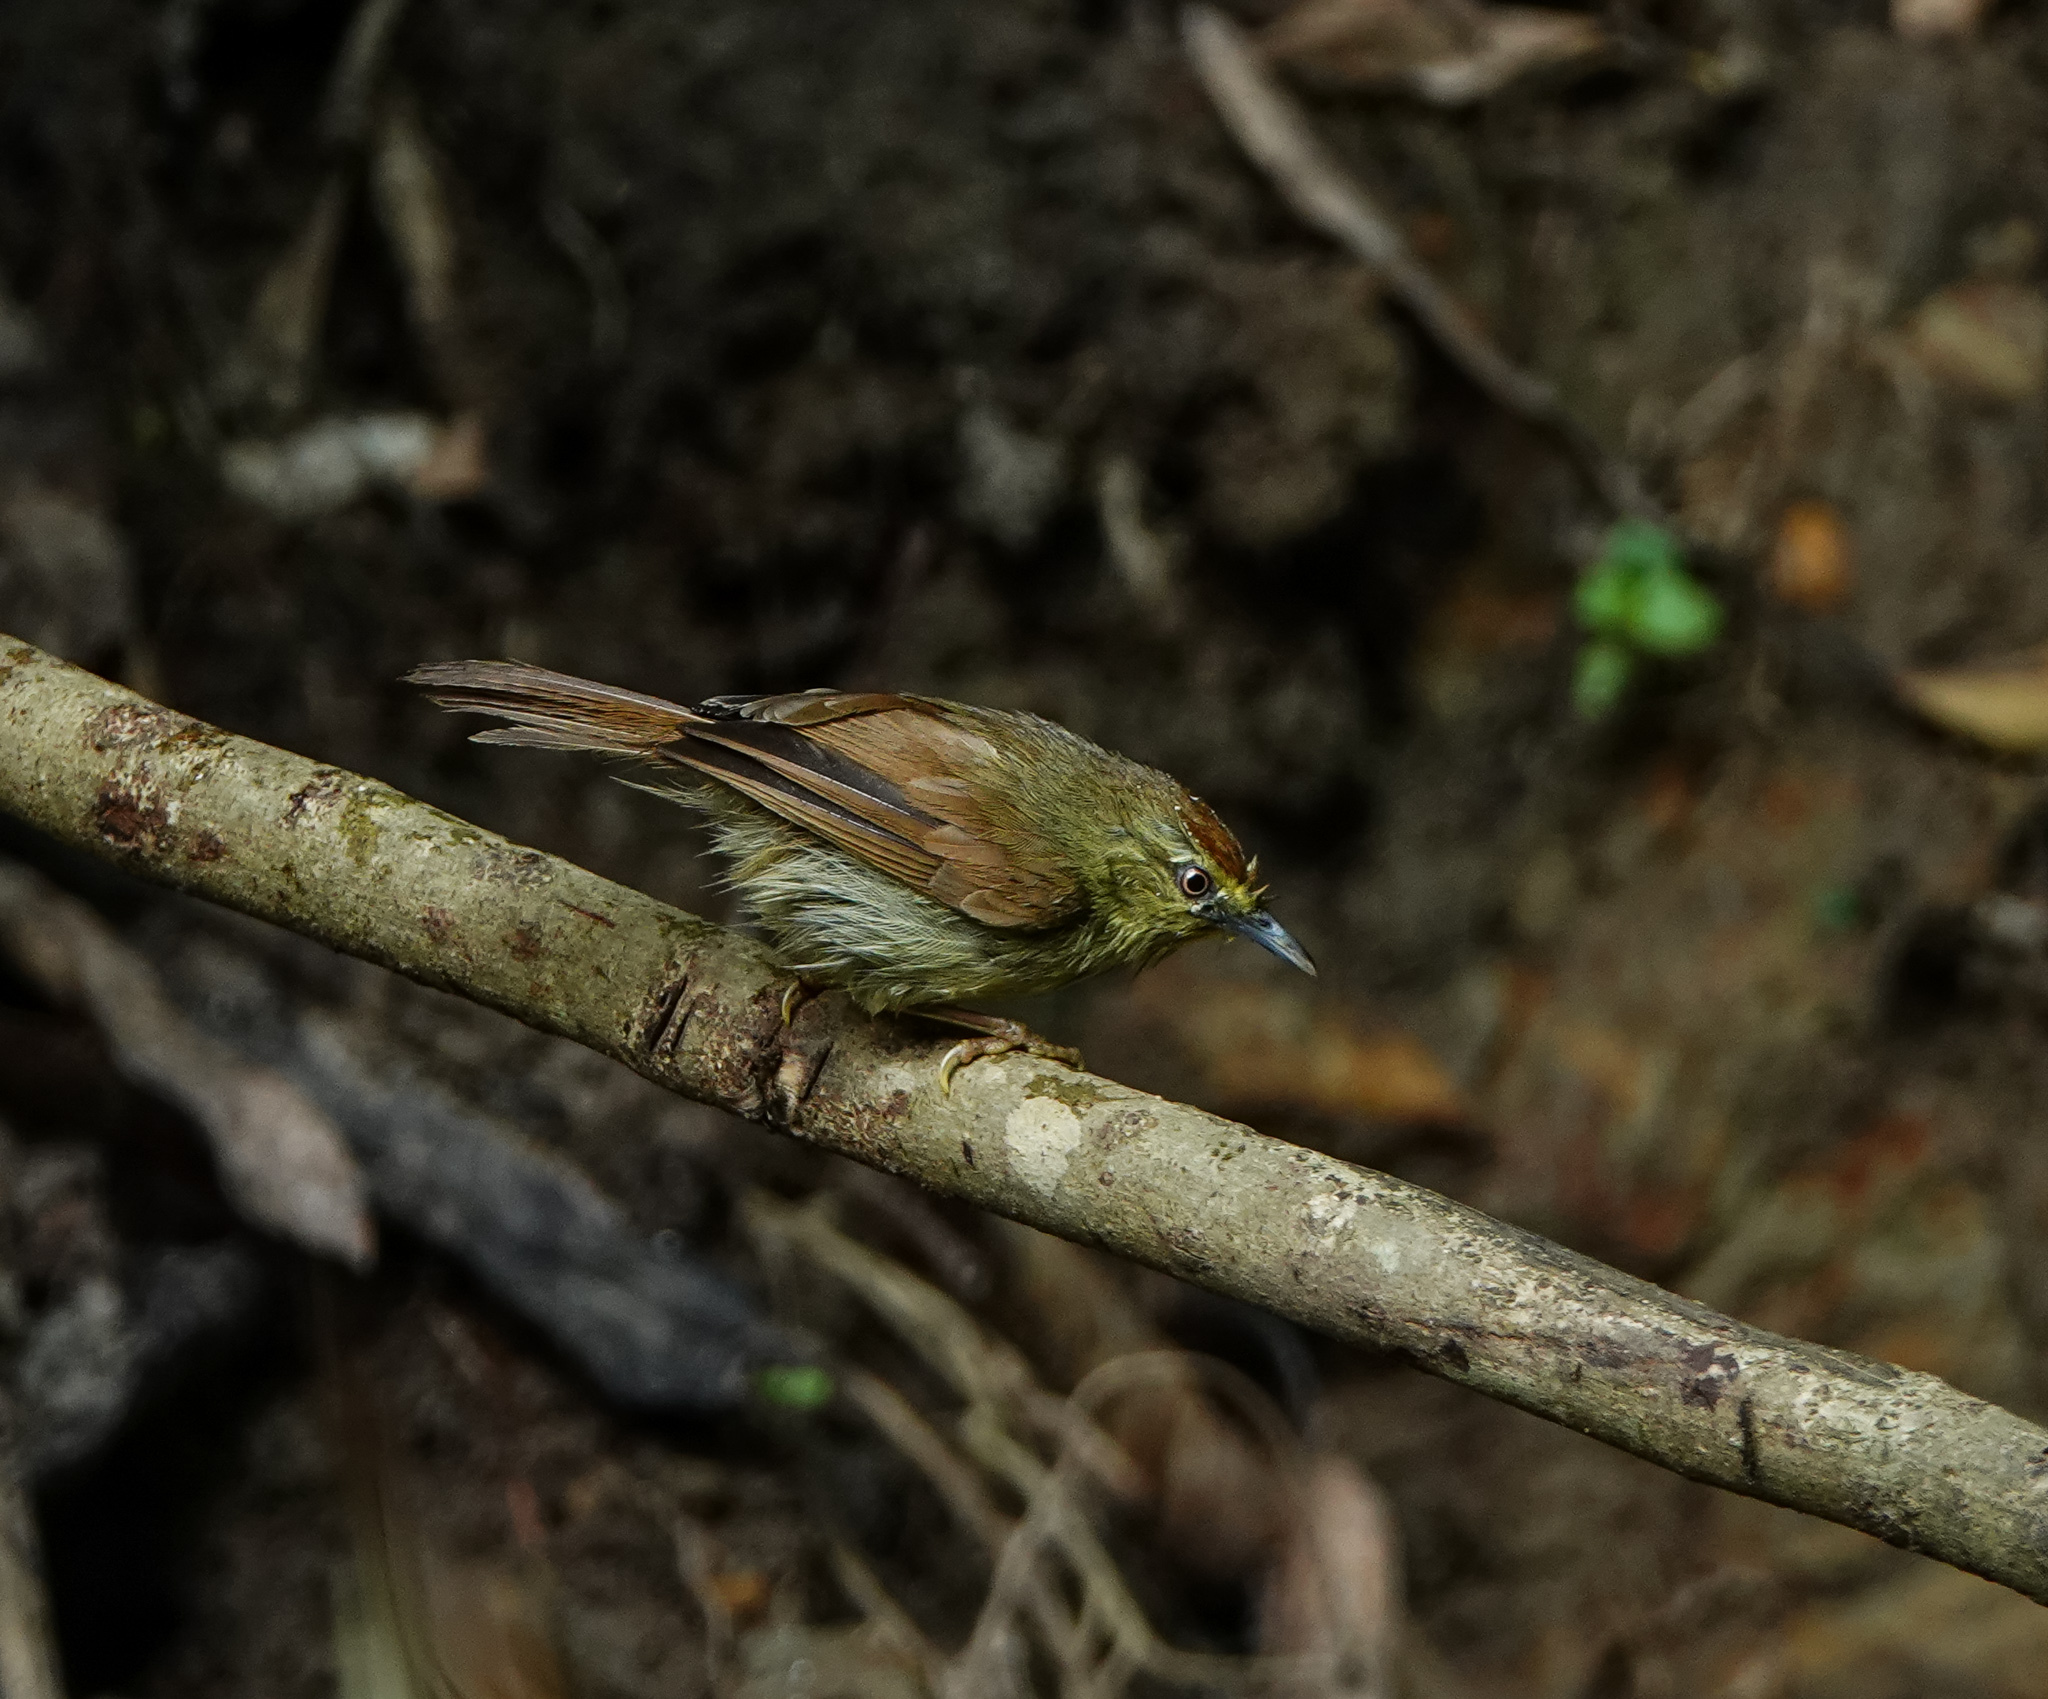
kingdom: Animalia
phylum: Chordata
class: Aves
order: Passeriformes
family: Timaliidae
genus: Macronus
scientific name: Macronus gularis
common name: Striped tit-babbler
